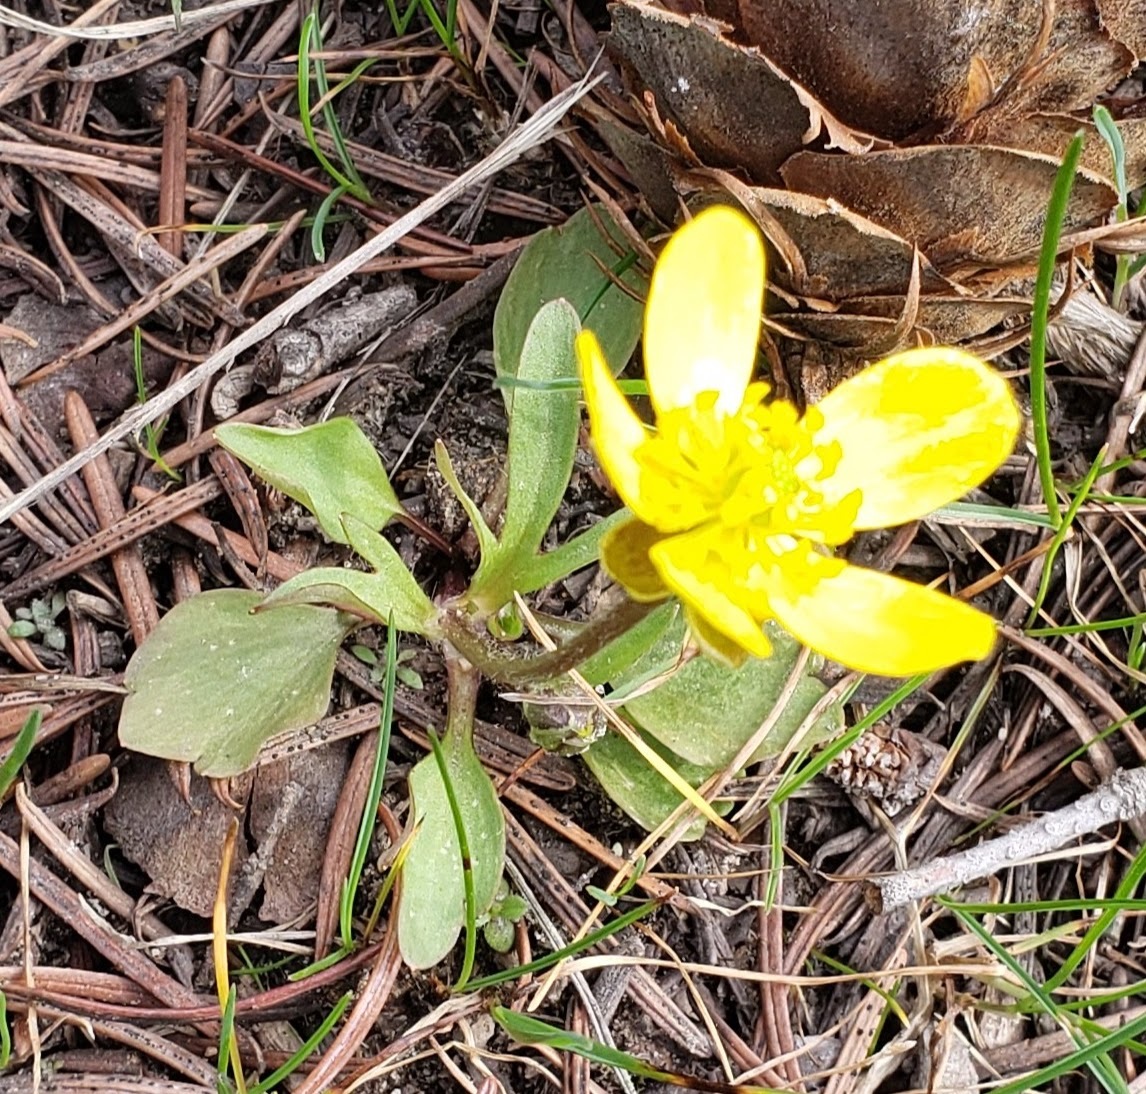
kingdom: Plantae
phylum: Tracheophyta
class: Magnoliopsida
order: Ranunculales
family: Ranunculaceae
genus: Ranunculus
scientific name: Ranunculus glaberrimus
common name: Sagebrush buttercup
